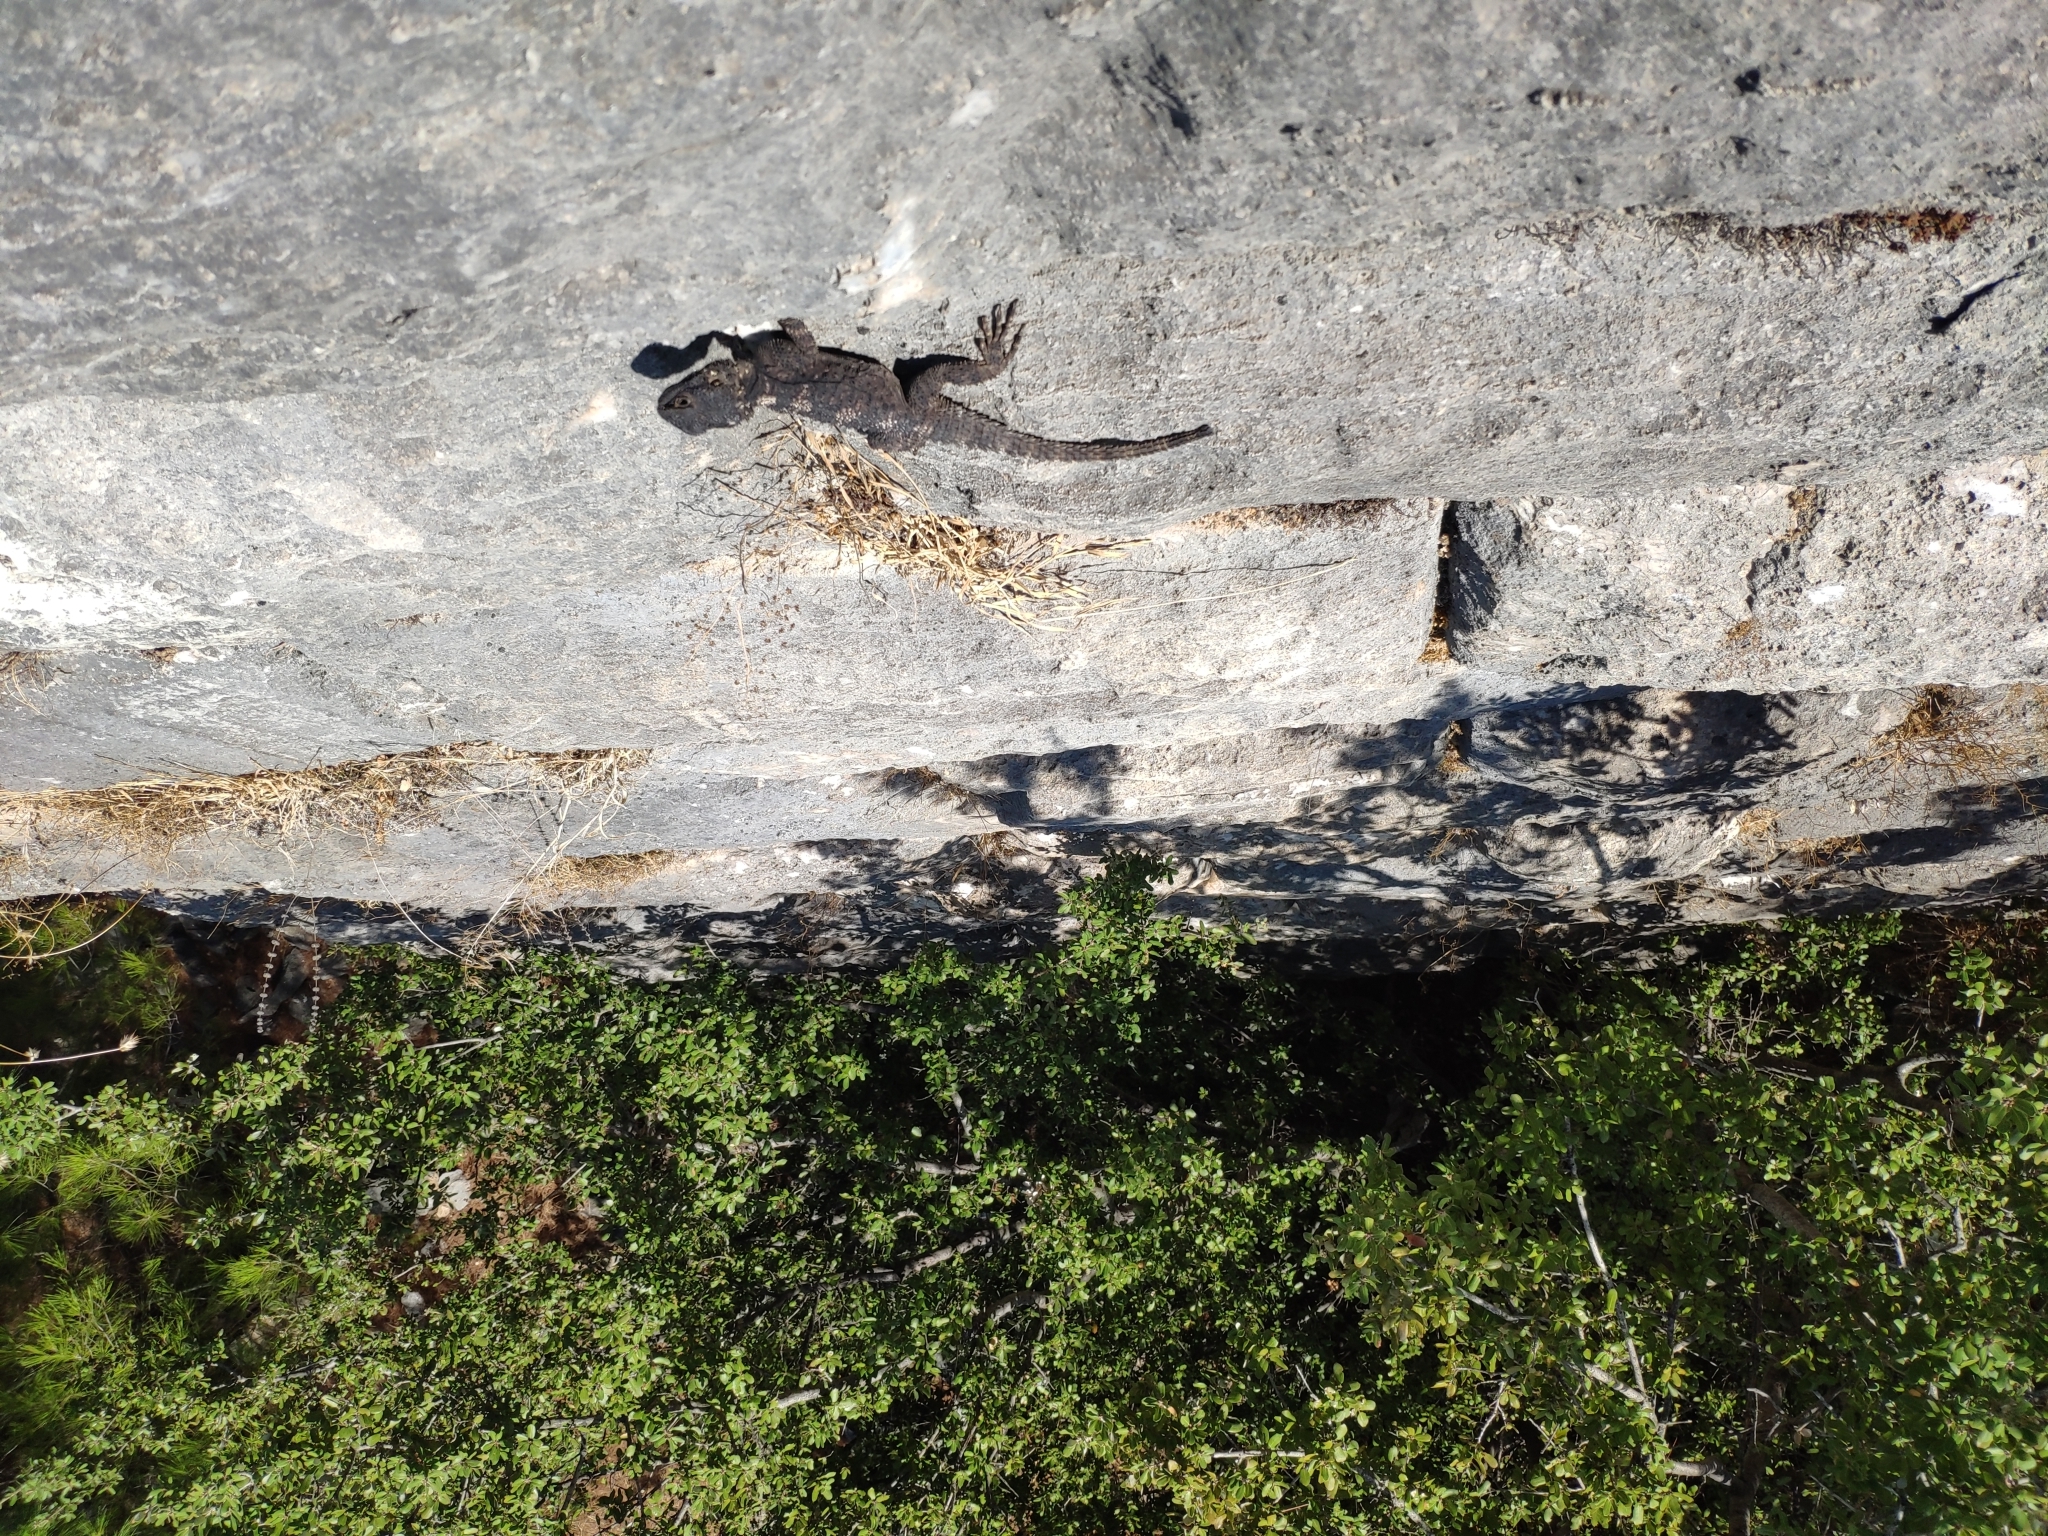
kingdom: Animalia
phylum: Chordata
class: Squamata
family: Agamidae
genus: Stellagama
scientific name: Stellagama stellio
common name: Starred agama
